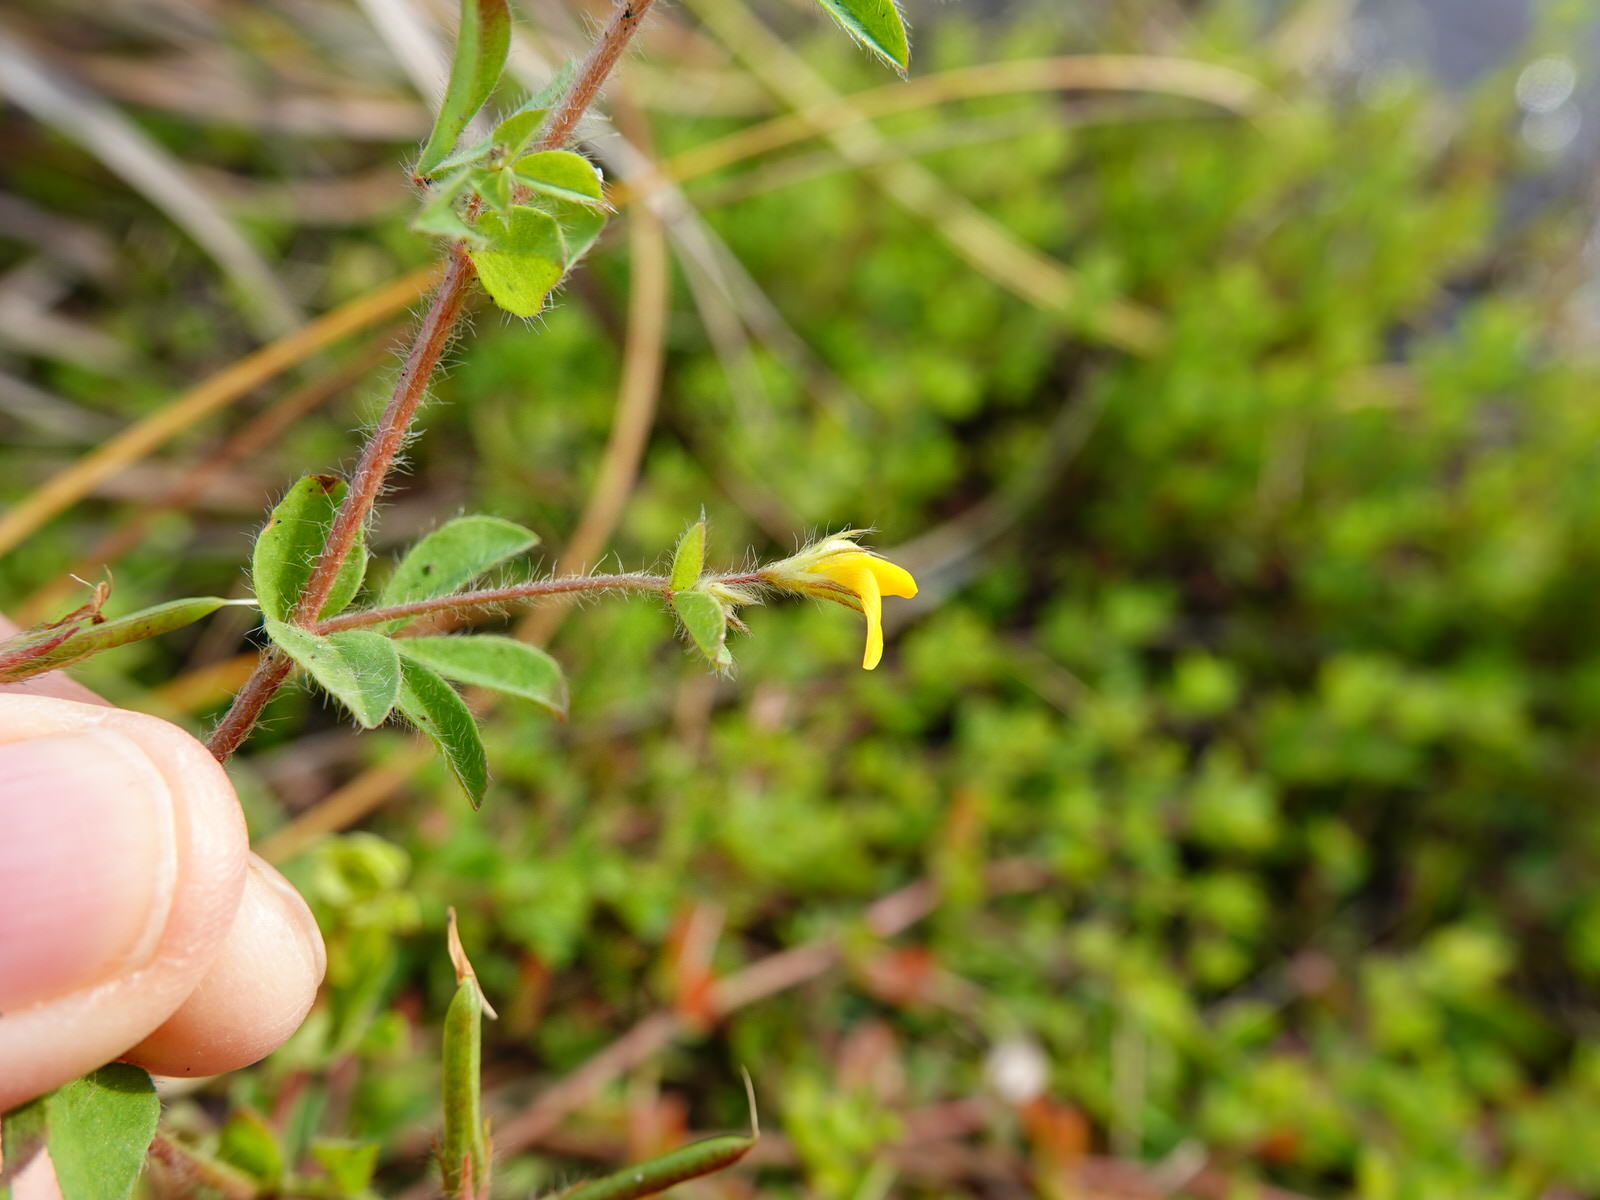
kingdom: Plantae
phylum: Tracheophyta
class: Magnoliopsida
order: Fabales
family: Fabaceae
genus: Lotus
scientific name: Lotus subbiflorus
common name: Hairy bird's-foot trefoil
